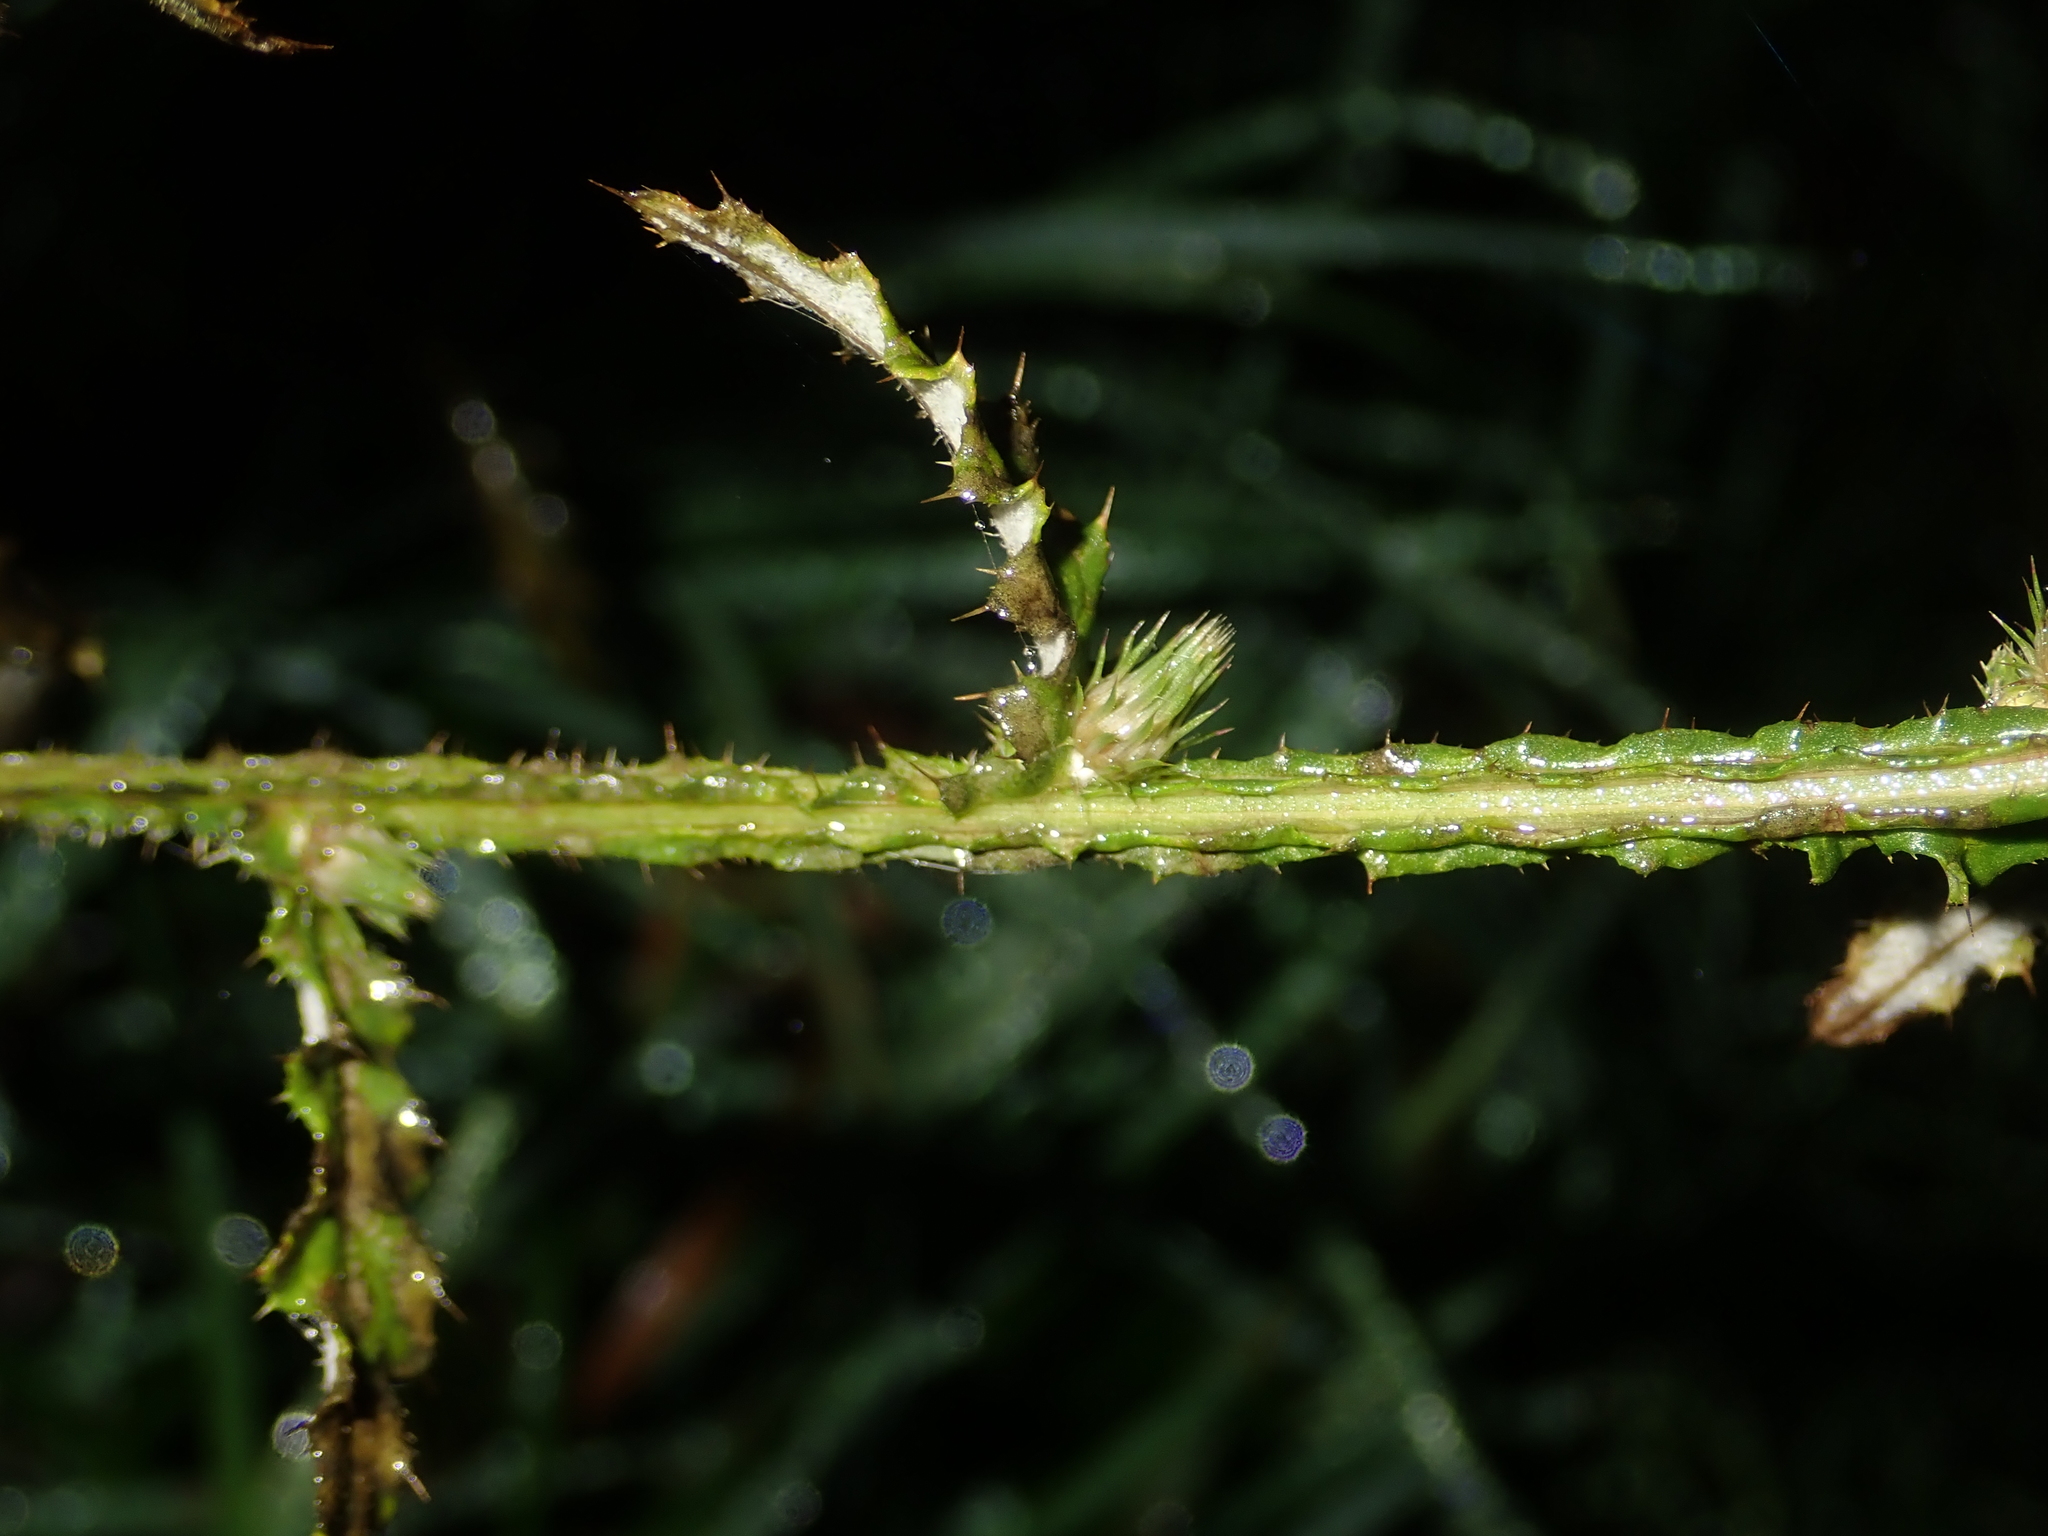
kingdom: Plantae
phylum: Tracheophyta
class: Magnoliopsida
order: Asterales
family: Asteraceae
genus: Carduus
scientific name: Carduus acanthoides
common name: Plumeless thistle
